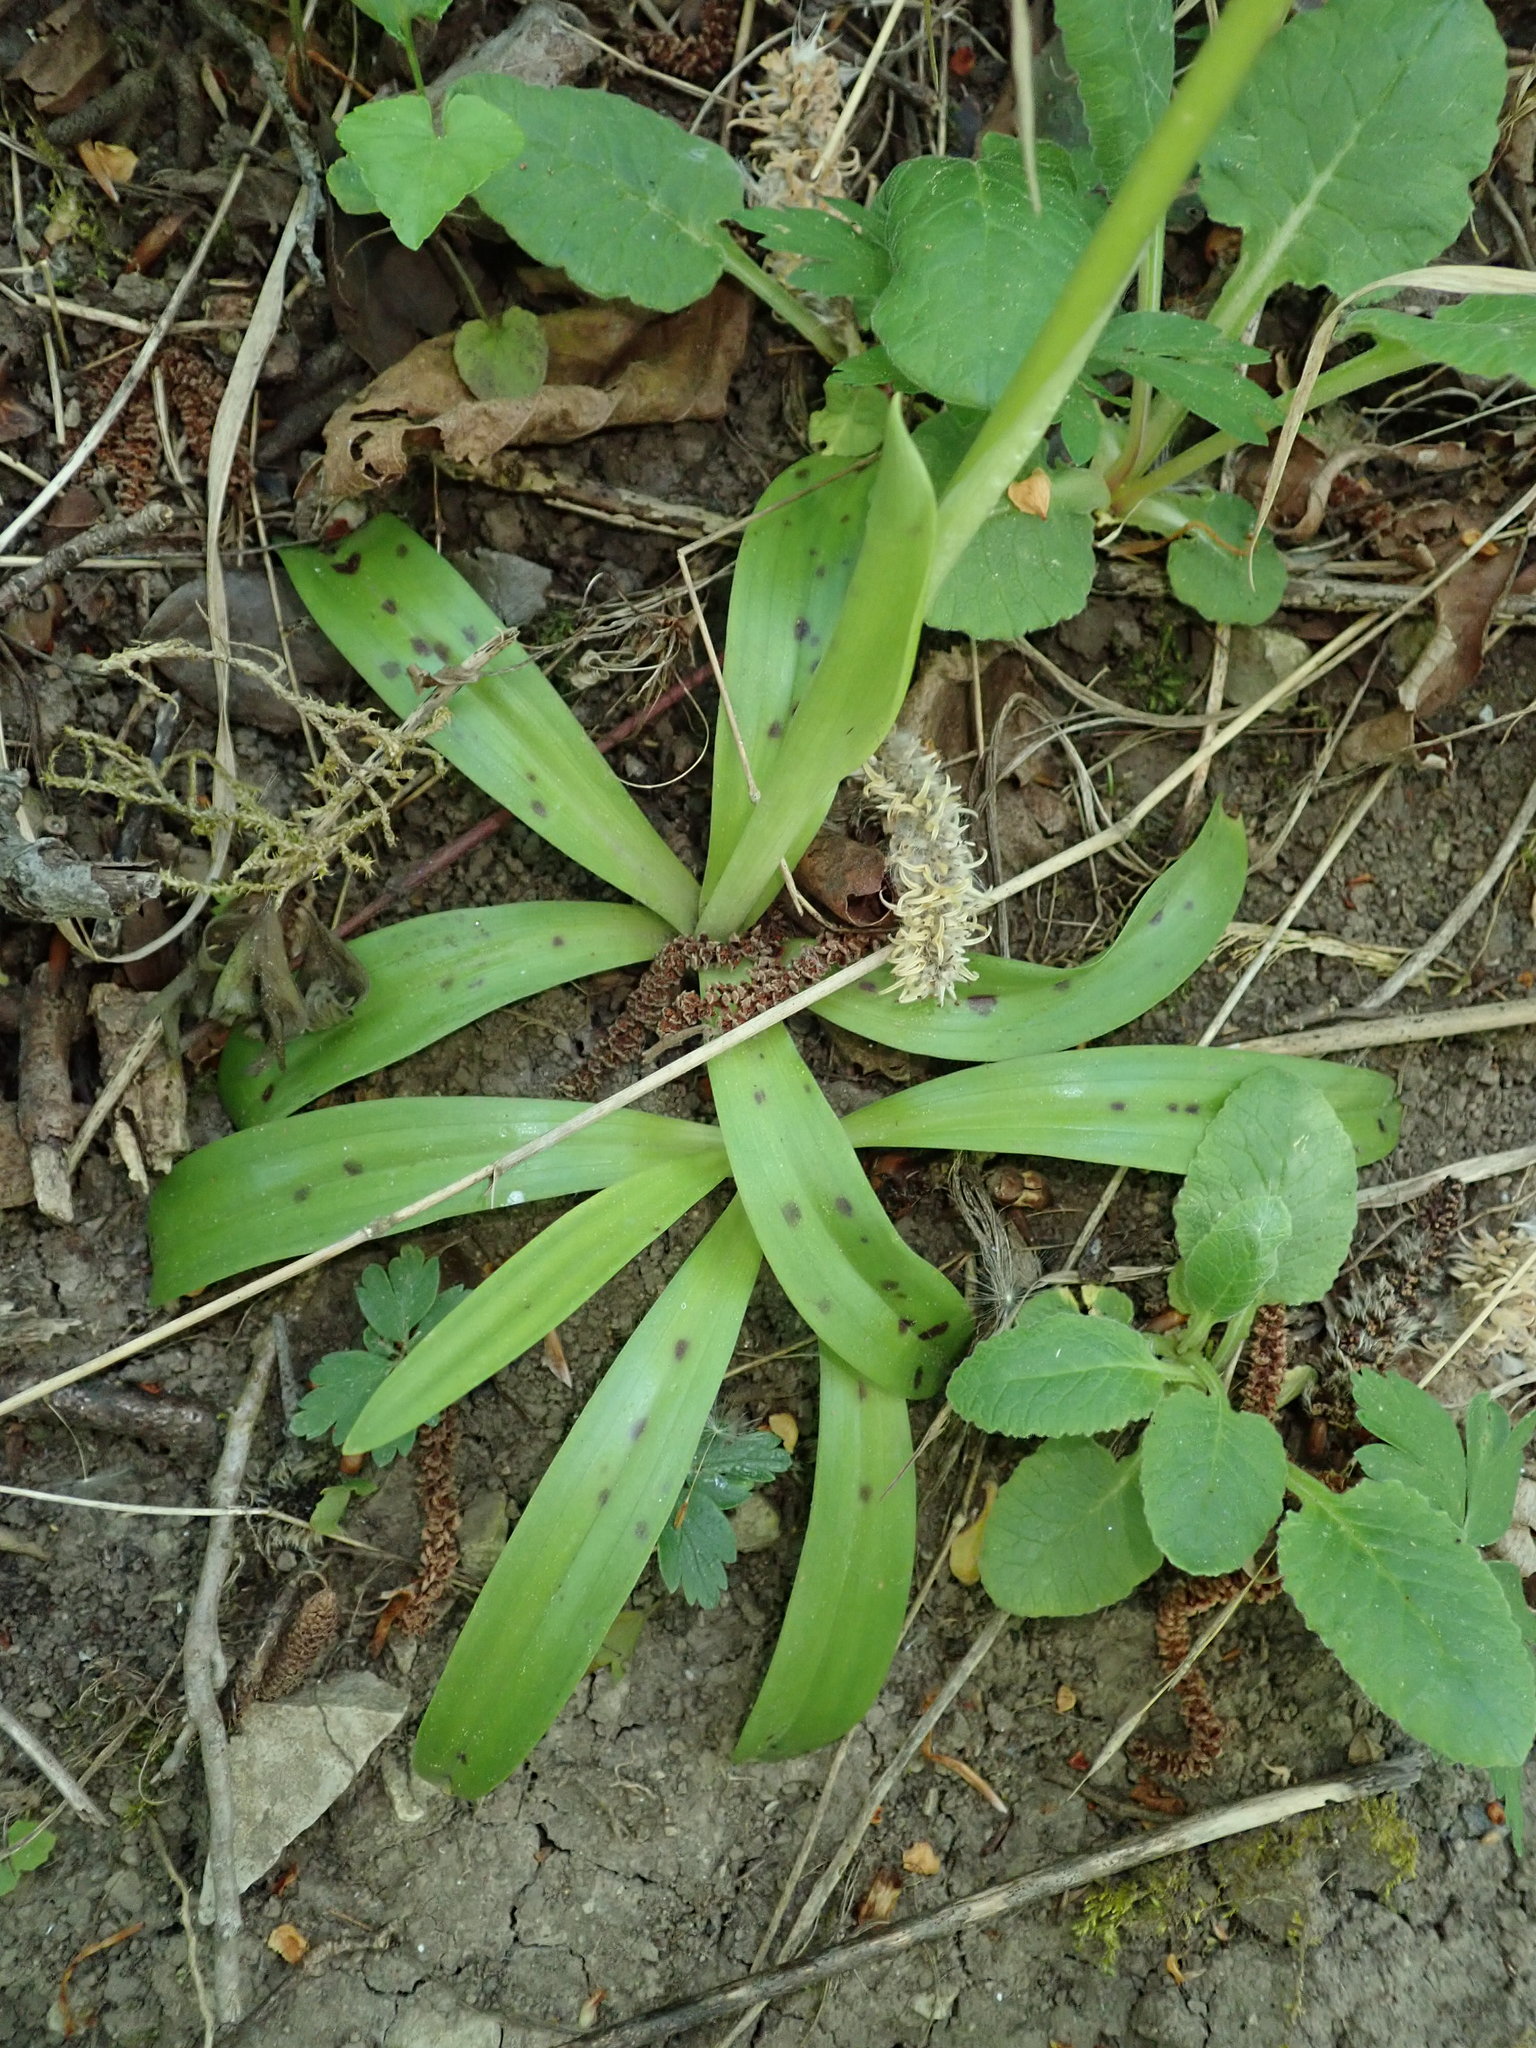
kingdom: Plantae
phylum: Tracheophyta
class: Liliopsida
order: Asparagales
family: Orchidaceae
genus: Orchis
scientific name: Orchis mascula
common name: Early-purple orchid
